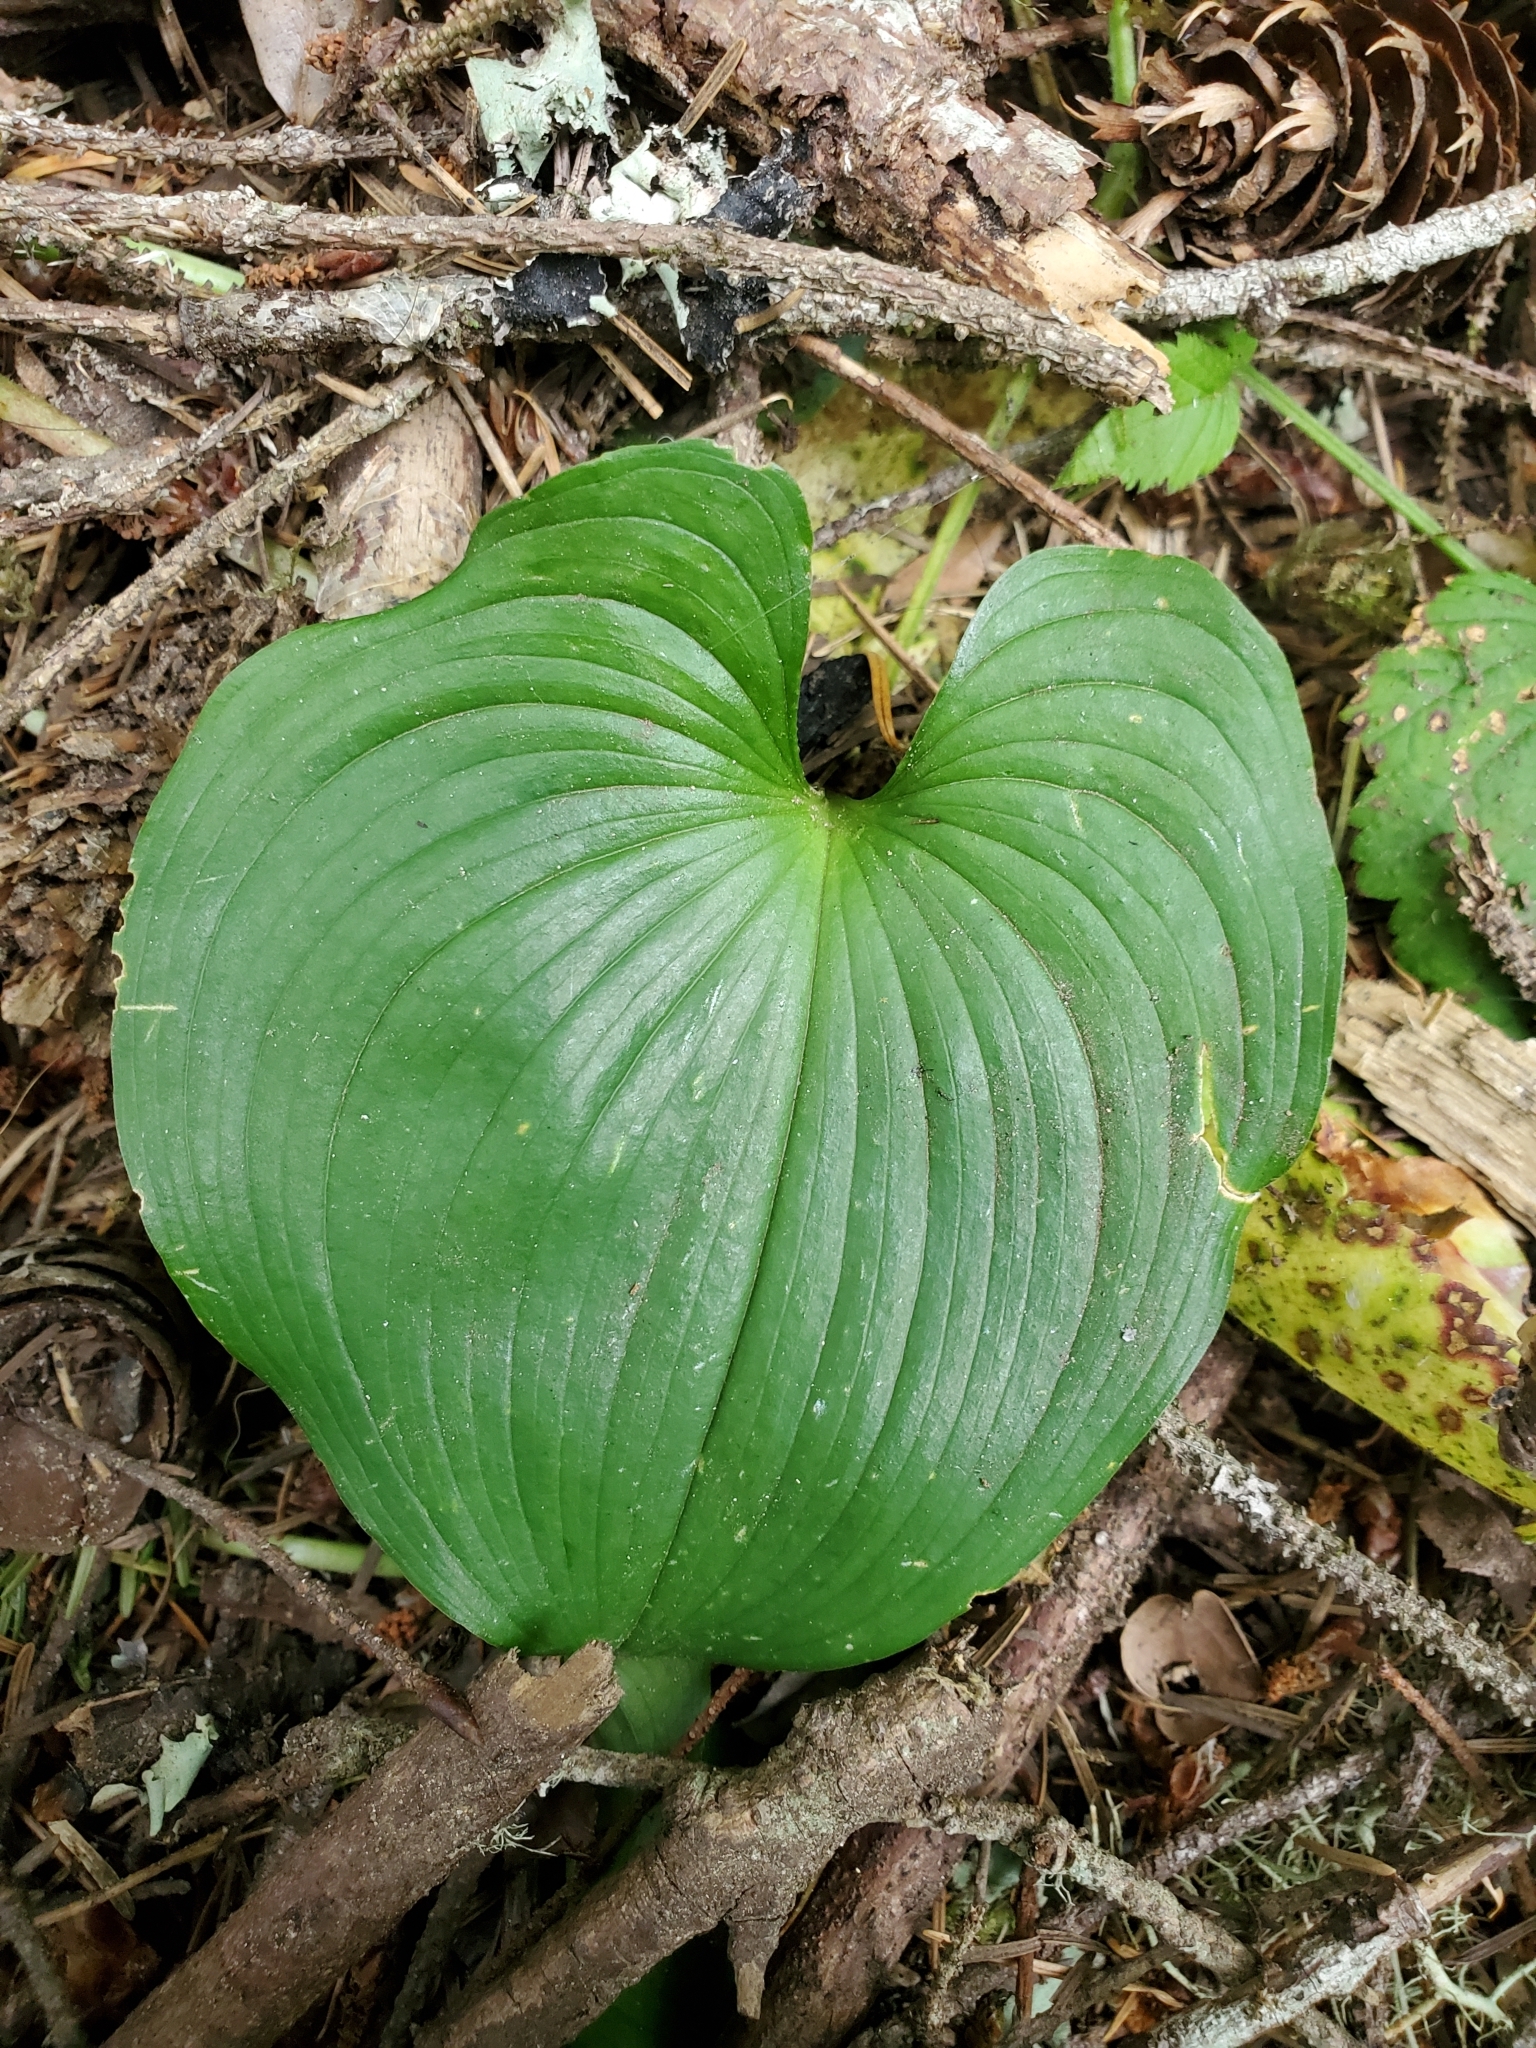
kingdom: Plantae
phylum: Tracheophyta
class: Liliopsida
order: Asparagales
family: Asparagaceae
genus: Maianthemum
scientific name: Maianthemum dilatatum
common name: False lily-of-the-valley
